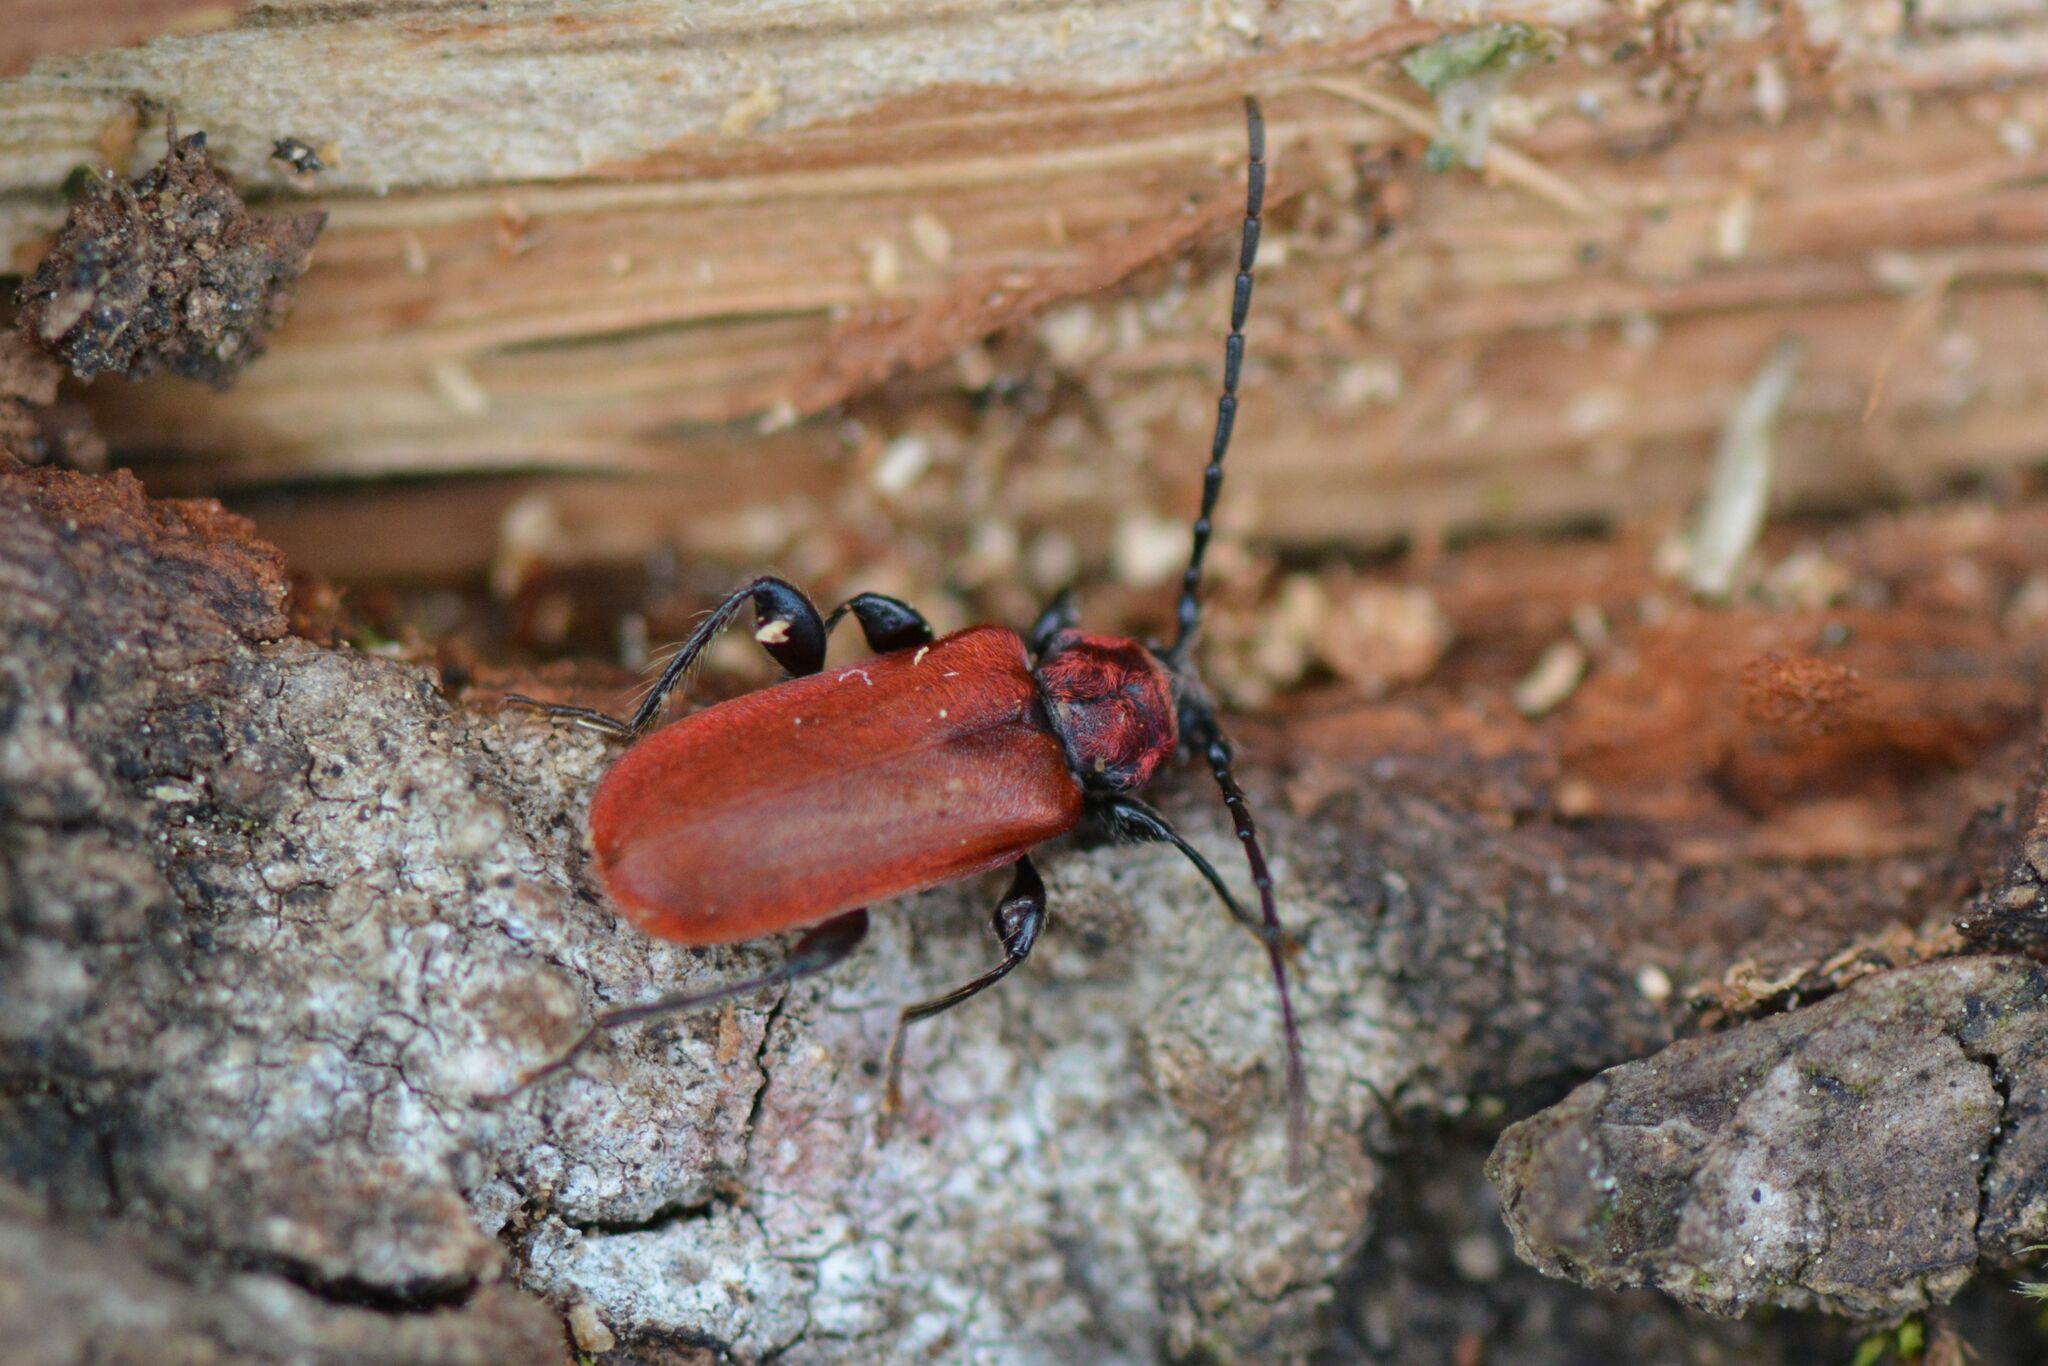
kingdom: Animalia
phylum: Arthropoda
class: Insecta
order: Coleoptera
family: Cerambycidae
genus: Pyrrhidium
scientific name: Pyrrhidium sanguineum
